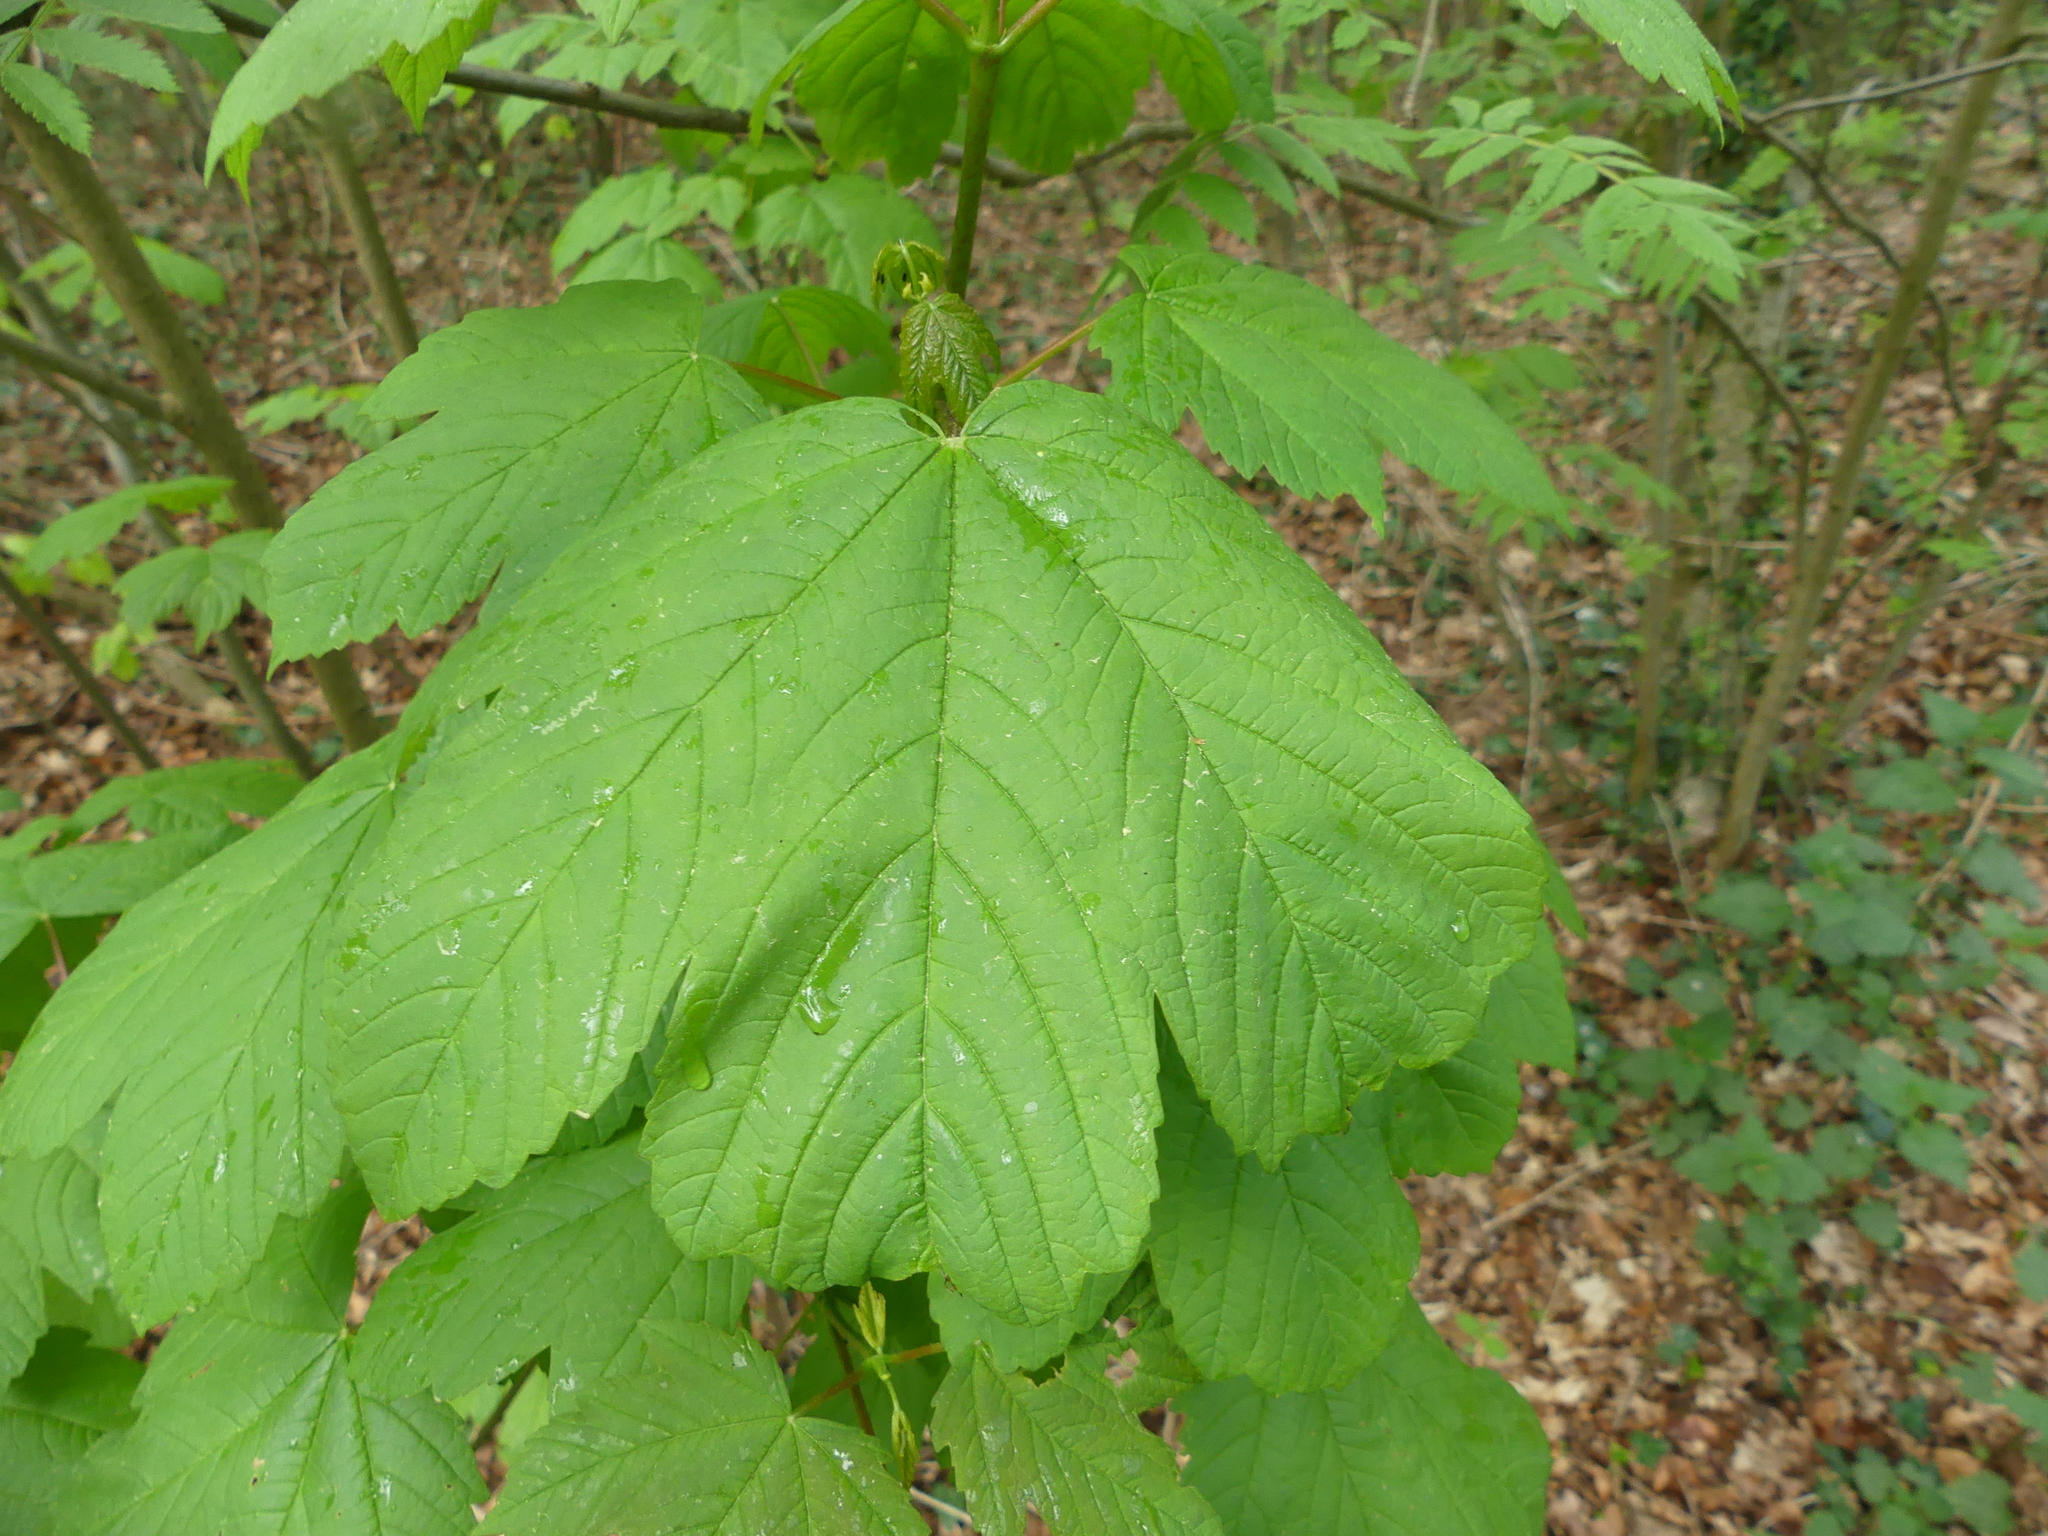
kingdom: Plantae
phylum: Tracheophyta
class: Magnoliopsida
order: Sapindales
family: Sapindaceae
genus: Acer
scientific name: Acer pseudoplatanus
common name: Sycamore
